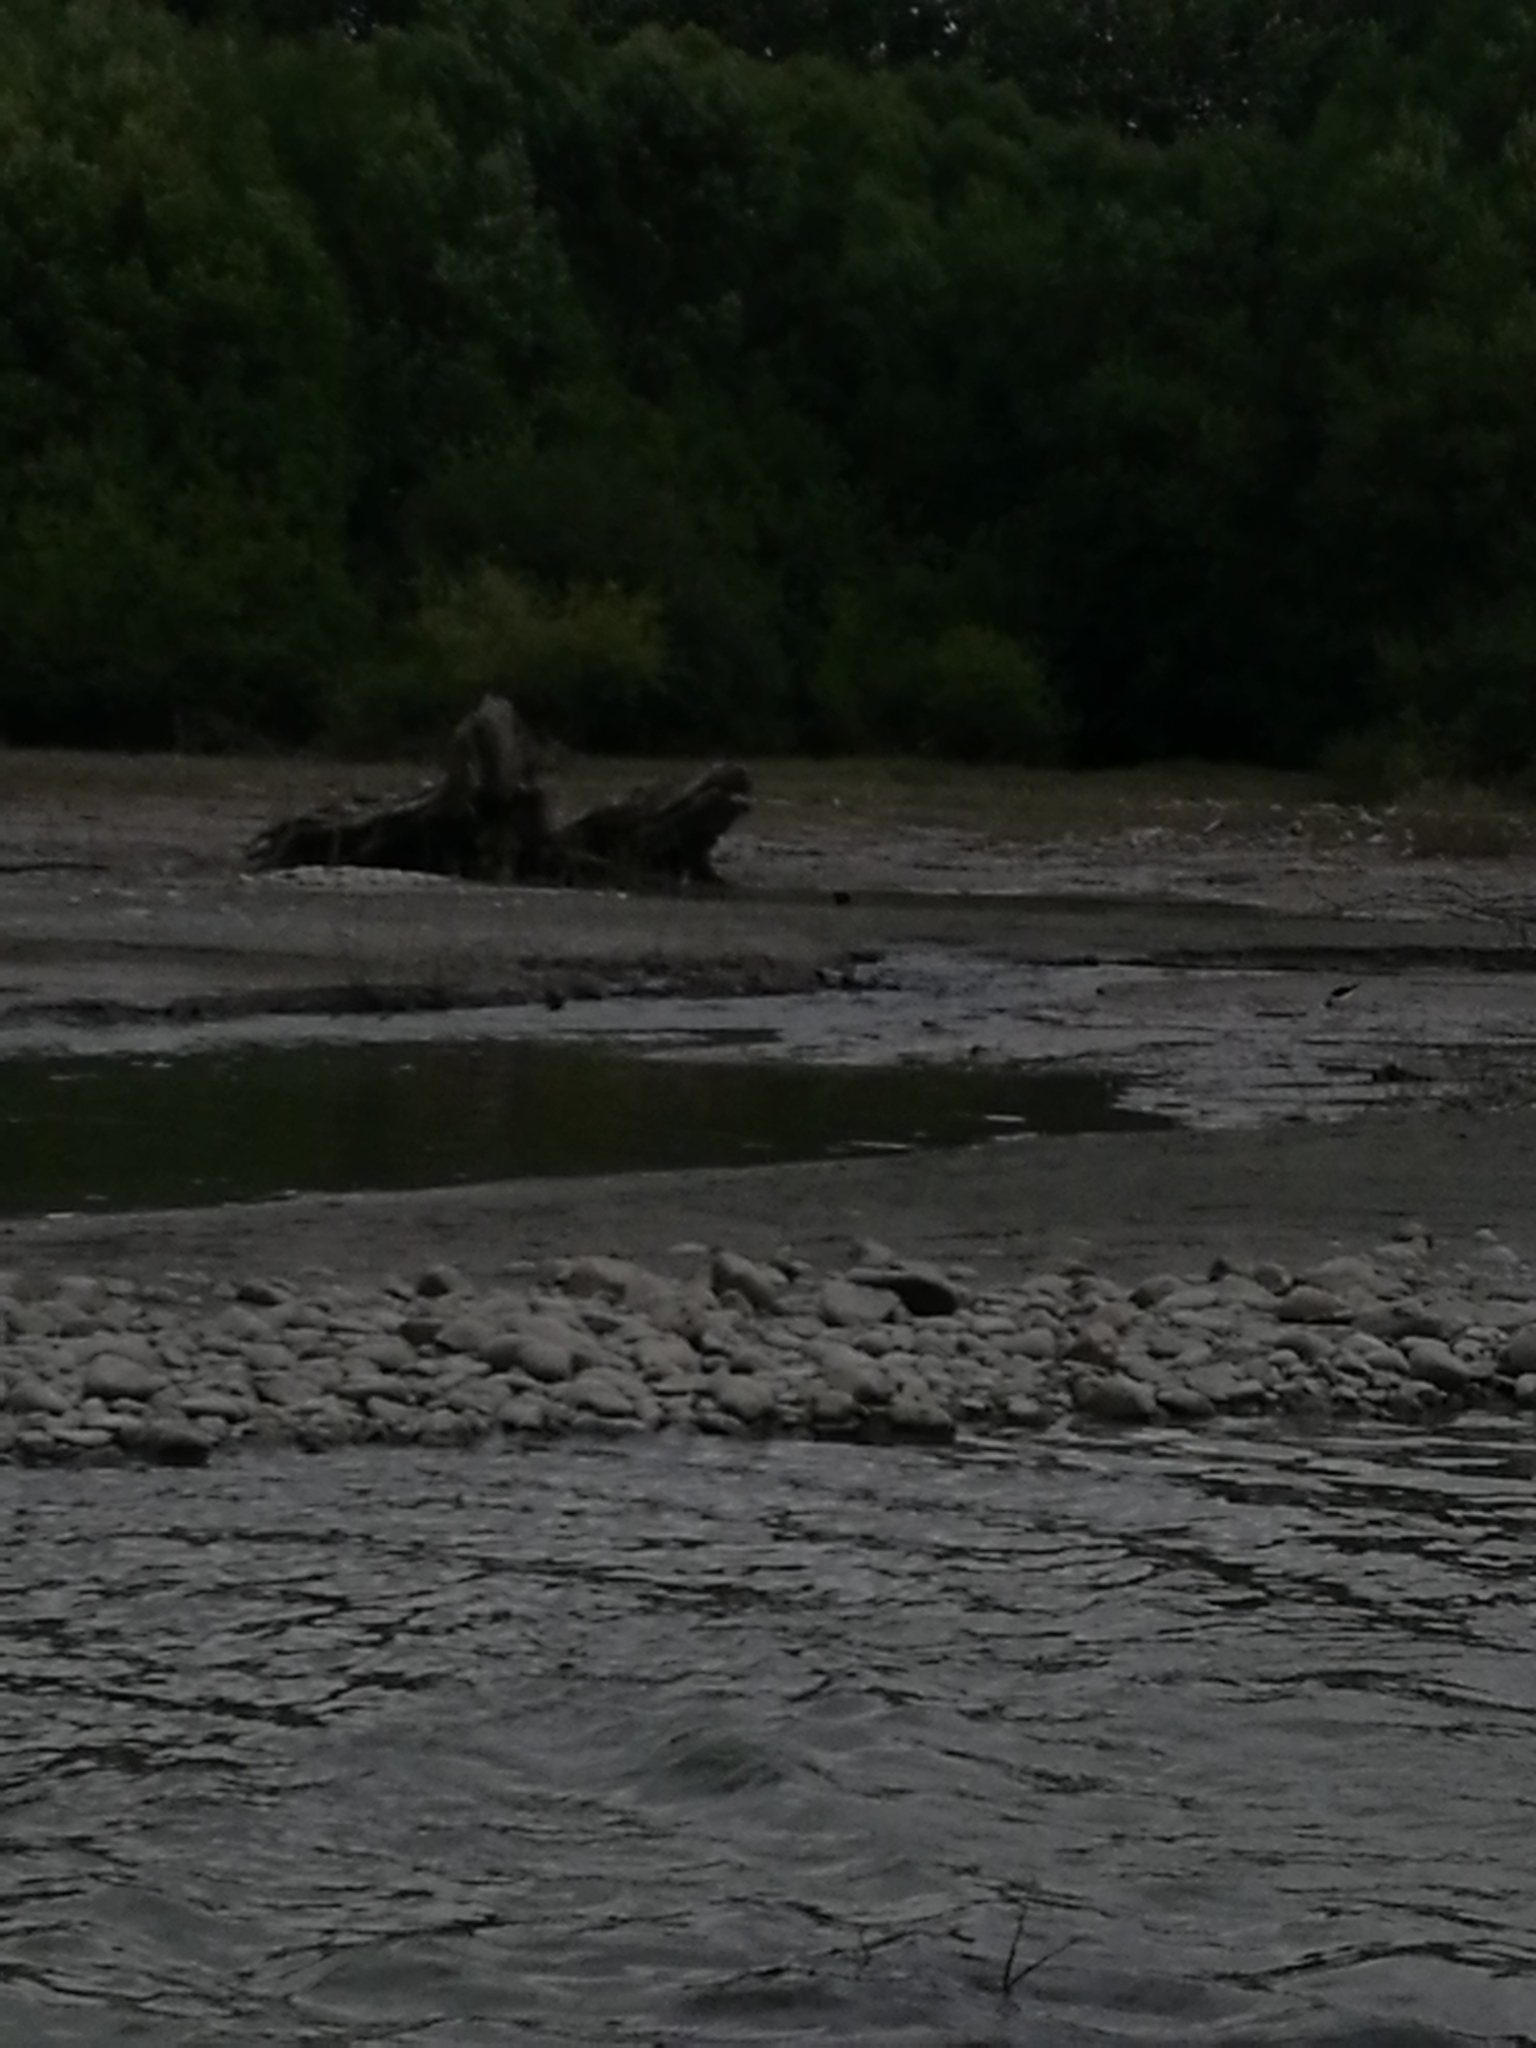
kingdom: Animalia
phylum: Chordata
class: Aves
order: Charadriiformes
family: Recurvirostridae
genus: Himantopus
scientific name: Himantopus leucocephalus
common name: White-headed stilt
